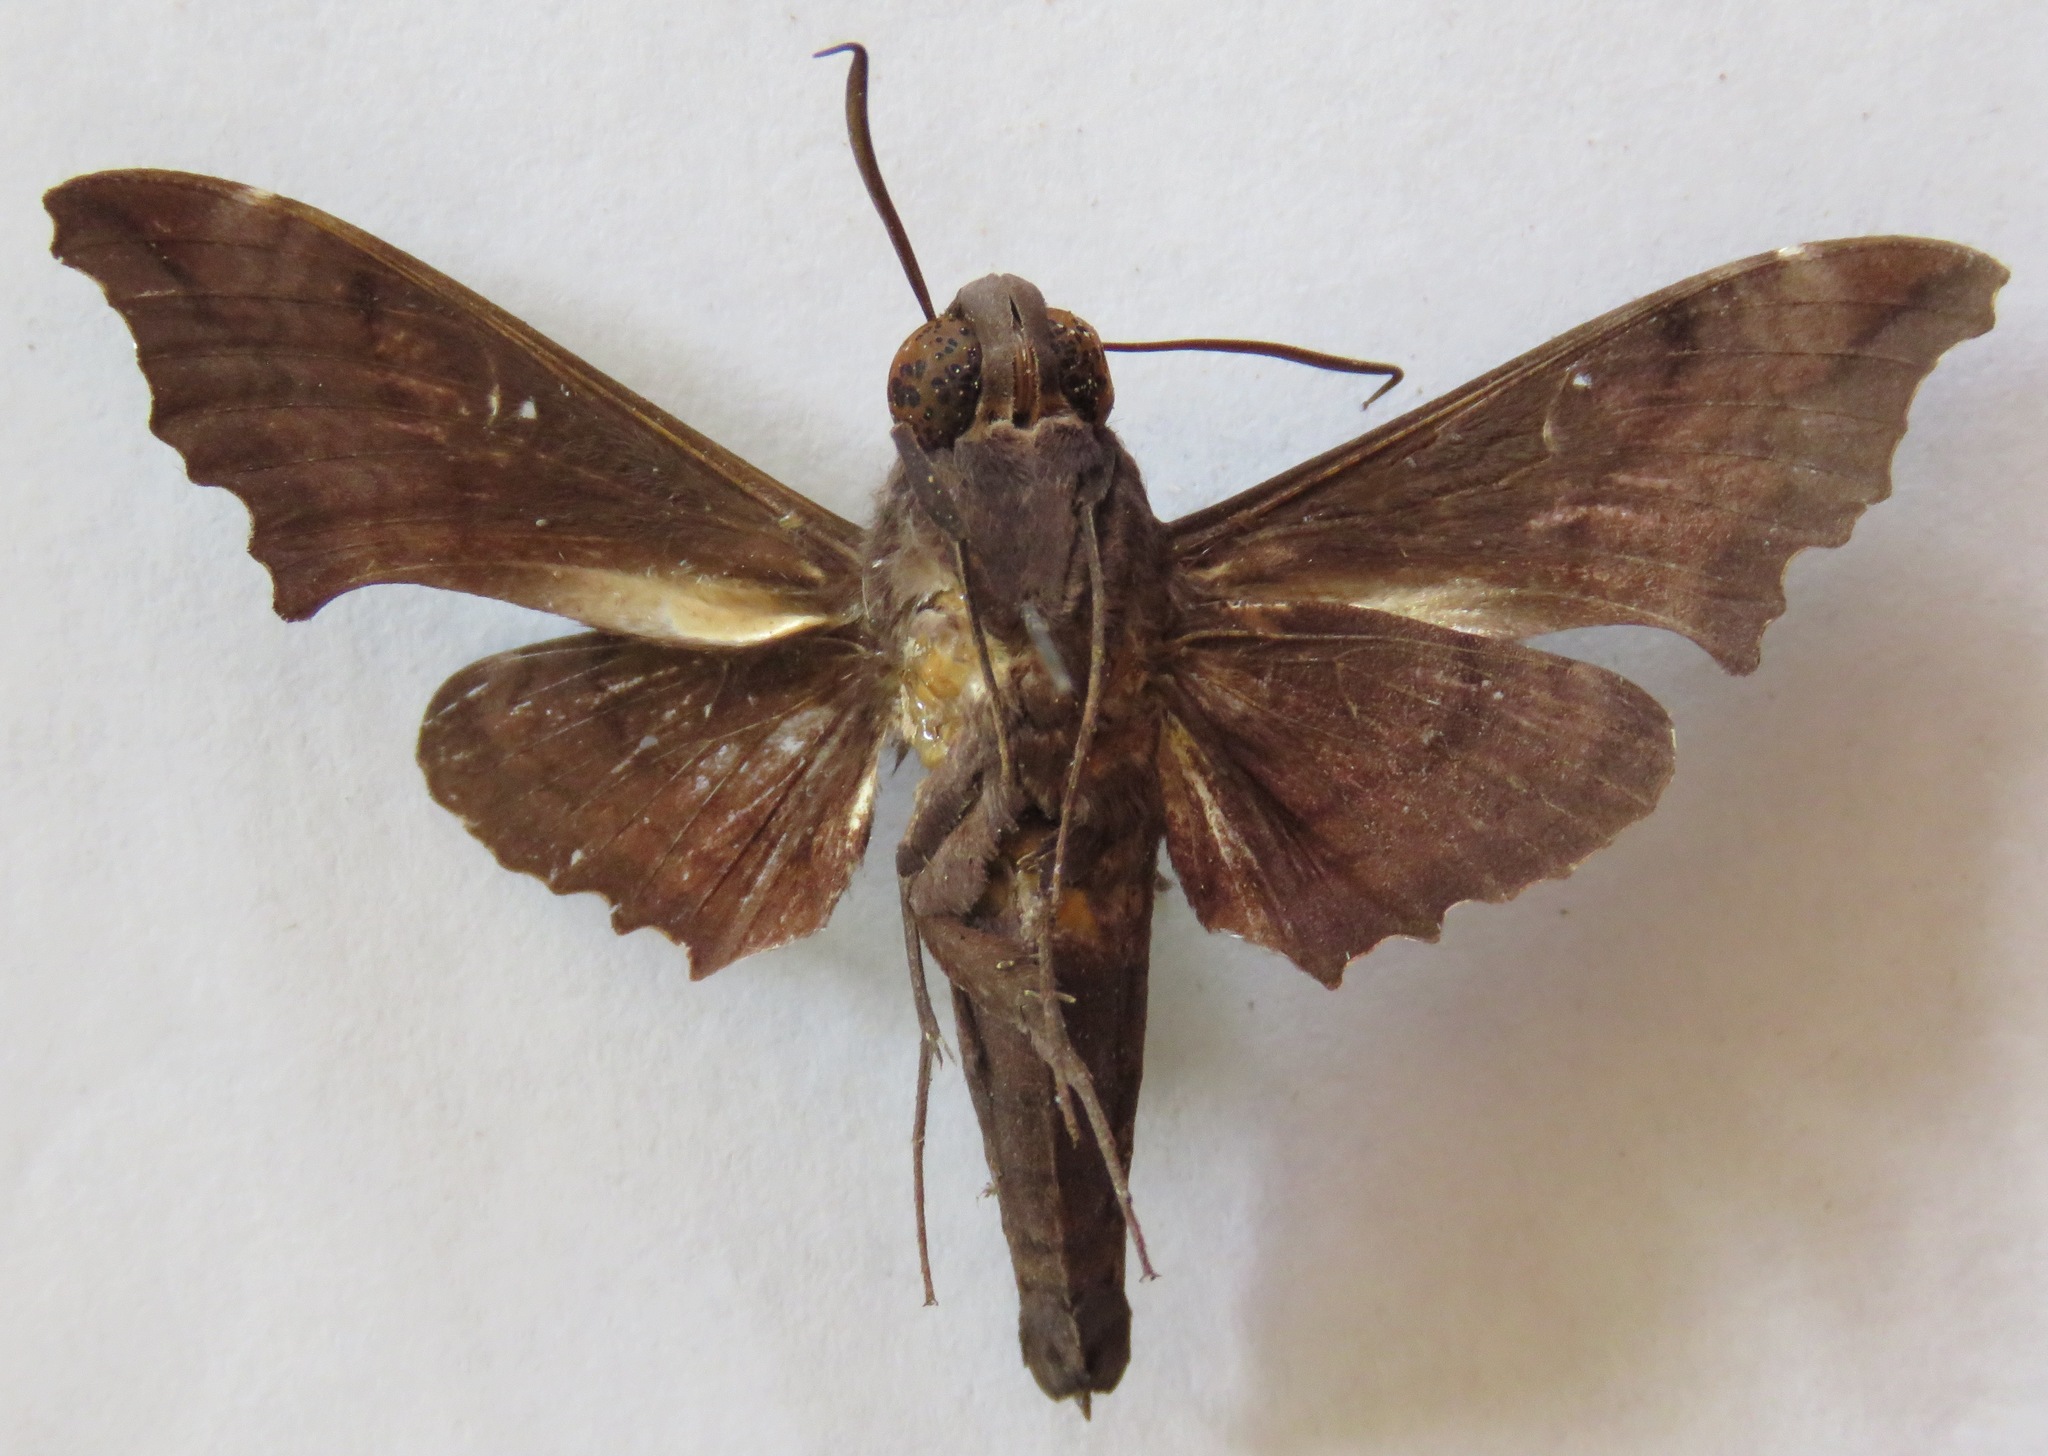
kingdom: Animalia
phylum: Arthropoda
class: Insecta
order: Lepidoptera
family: Sphingidae
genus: Enyo
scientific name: Enyo ocypete
